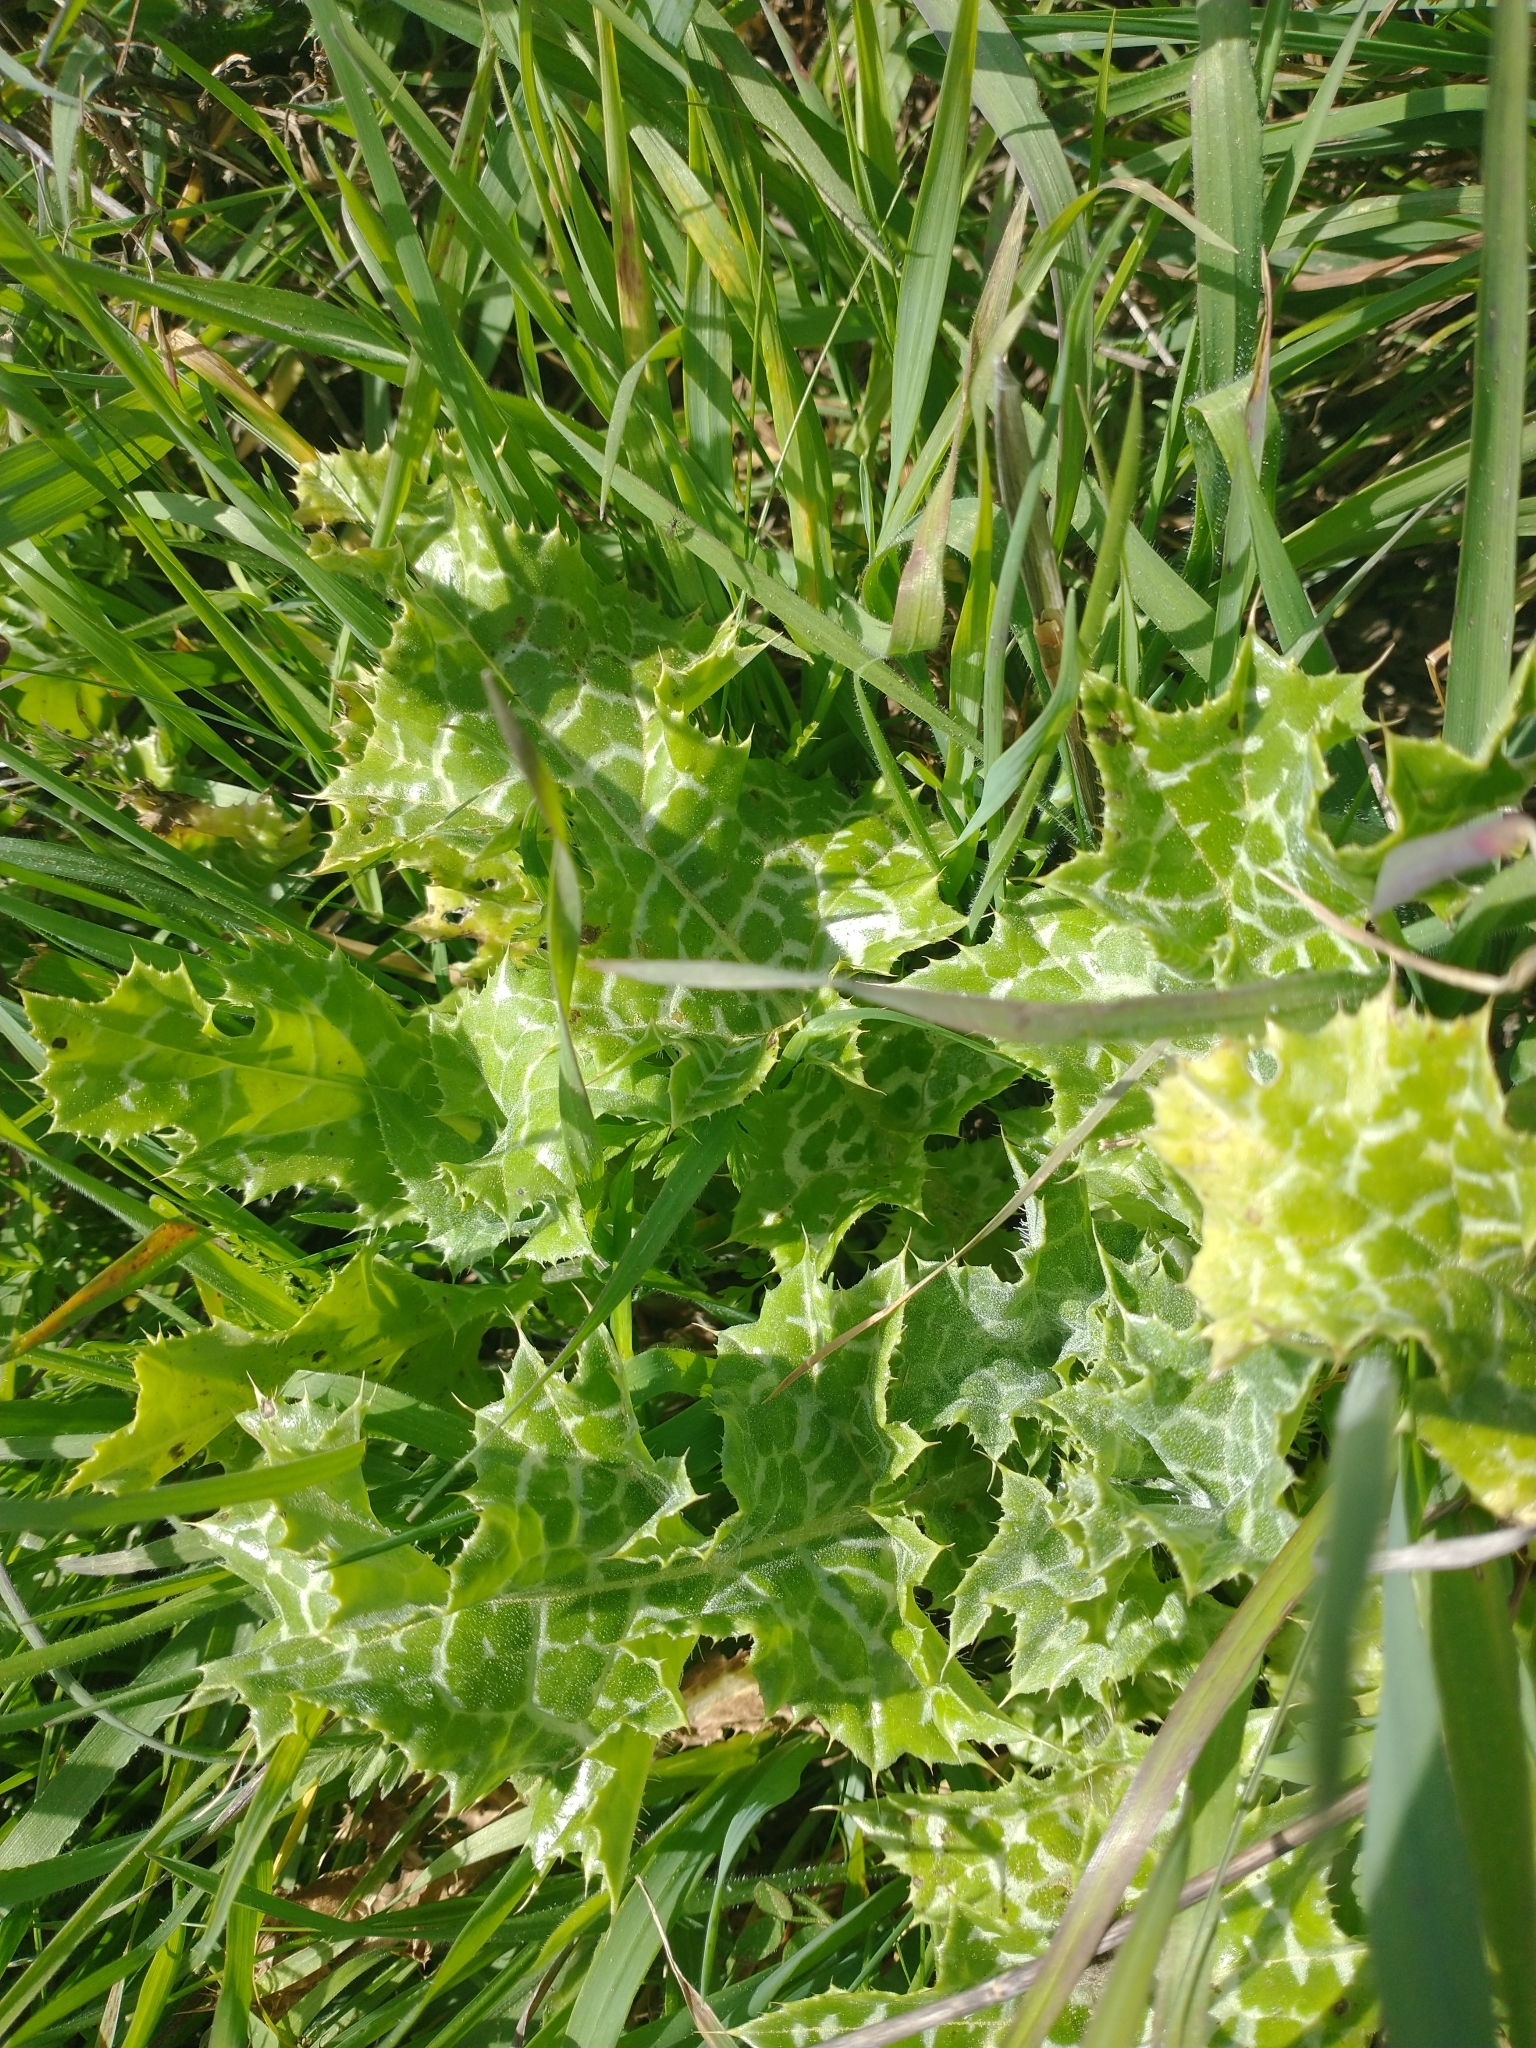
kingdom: Plantae
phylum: Tracheophyta
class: Magnoliopsida
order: Asterales
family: Asteraceae
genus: Silybum
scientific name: Silybum marianum
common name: Milk thistle
